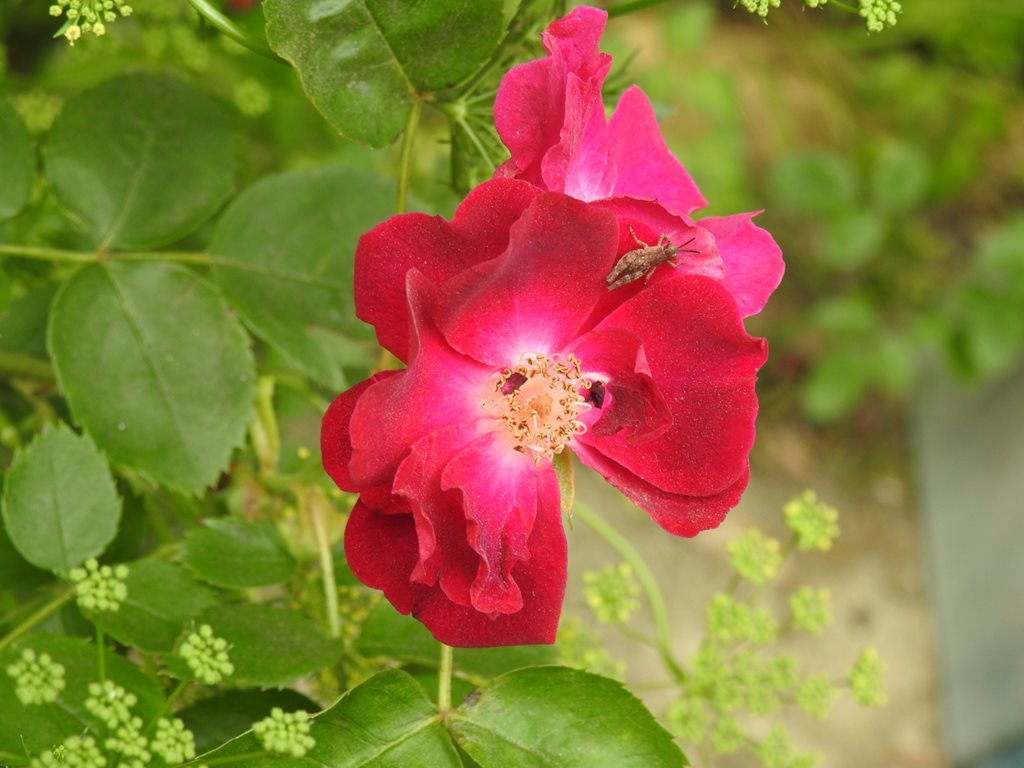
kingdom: Animalia
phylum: Arthropoda
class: Insecta
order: Orthoptera
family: Acrididae
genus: Phaulacridium
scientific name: Phaulacridium vittatum
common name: Wingless grasshopper
